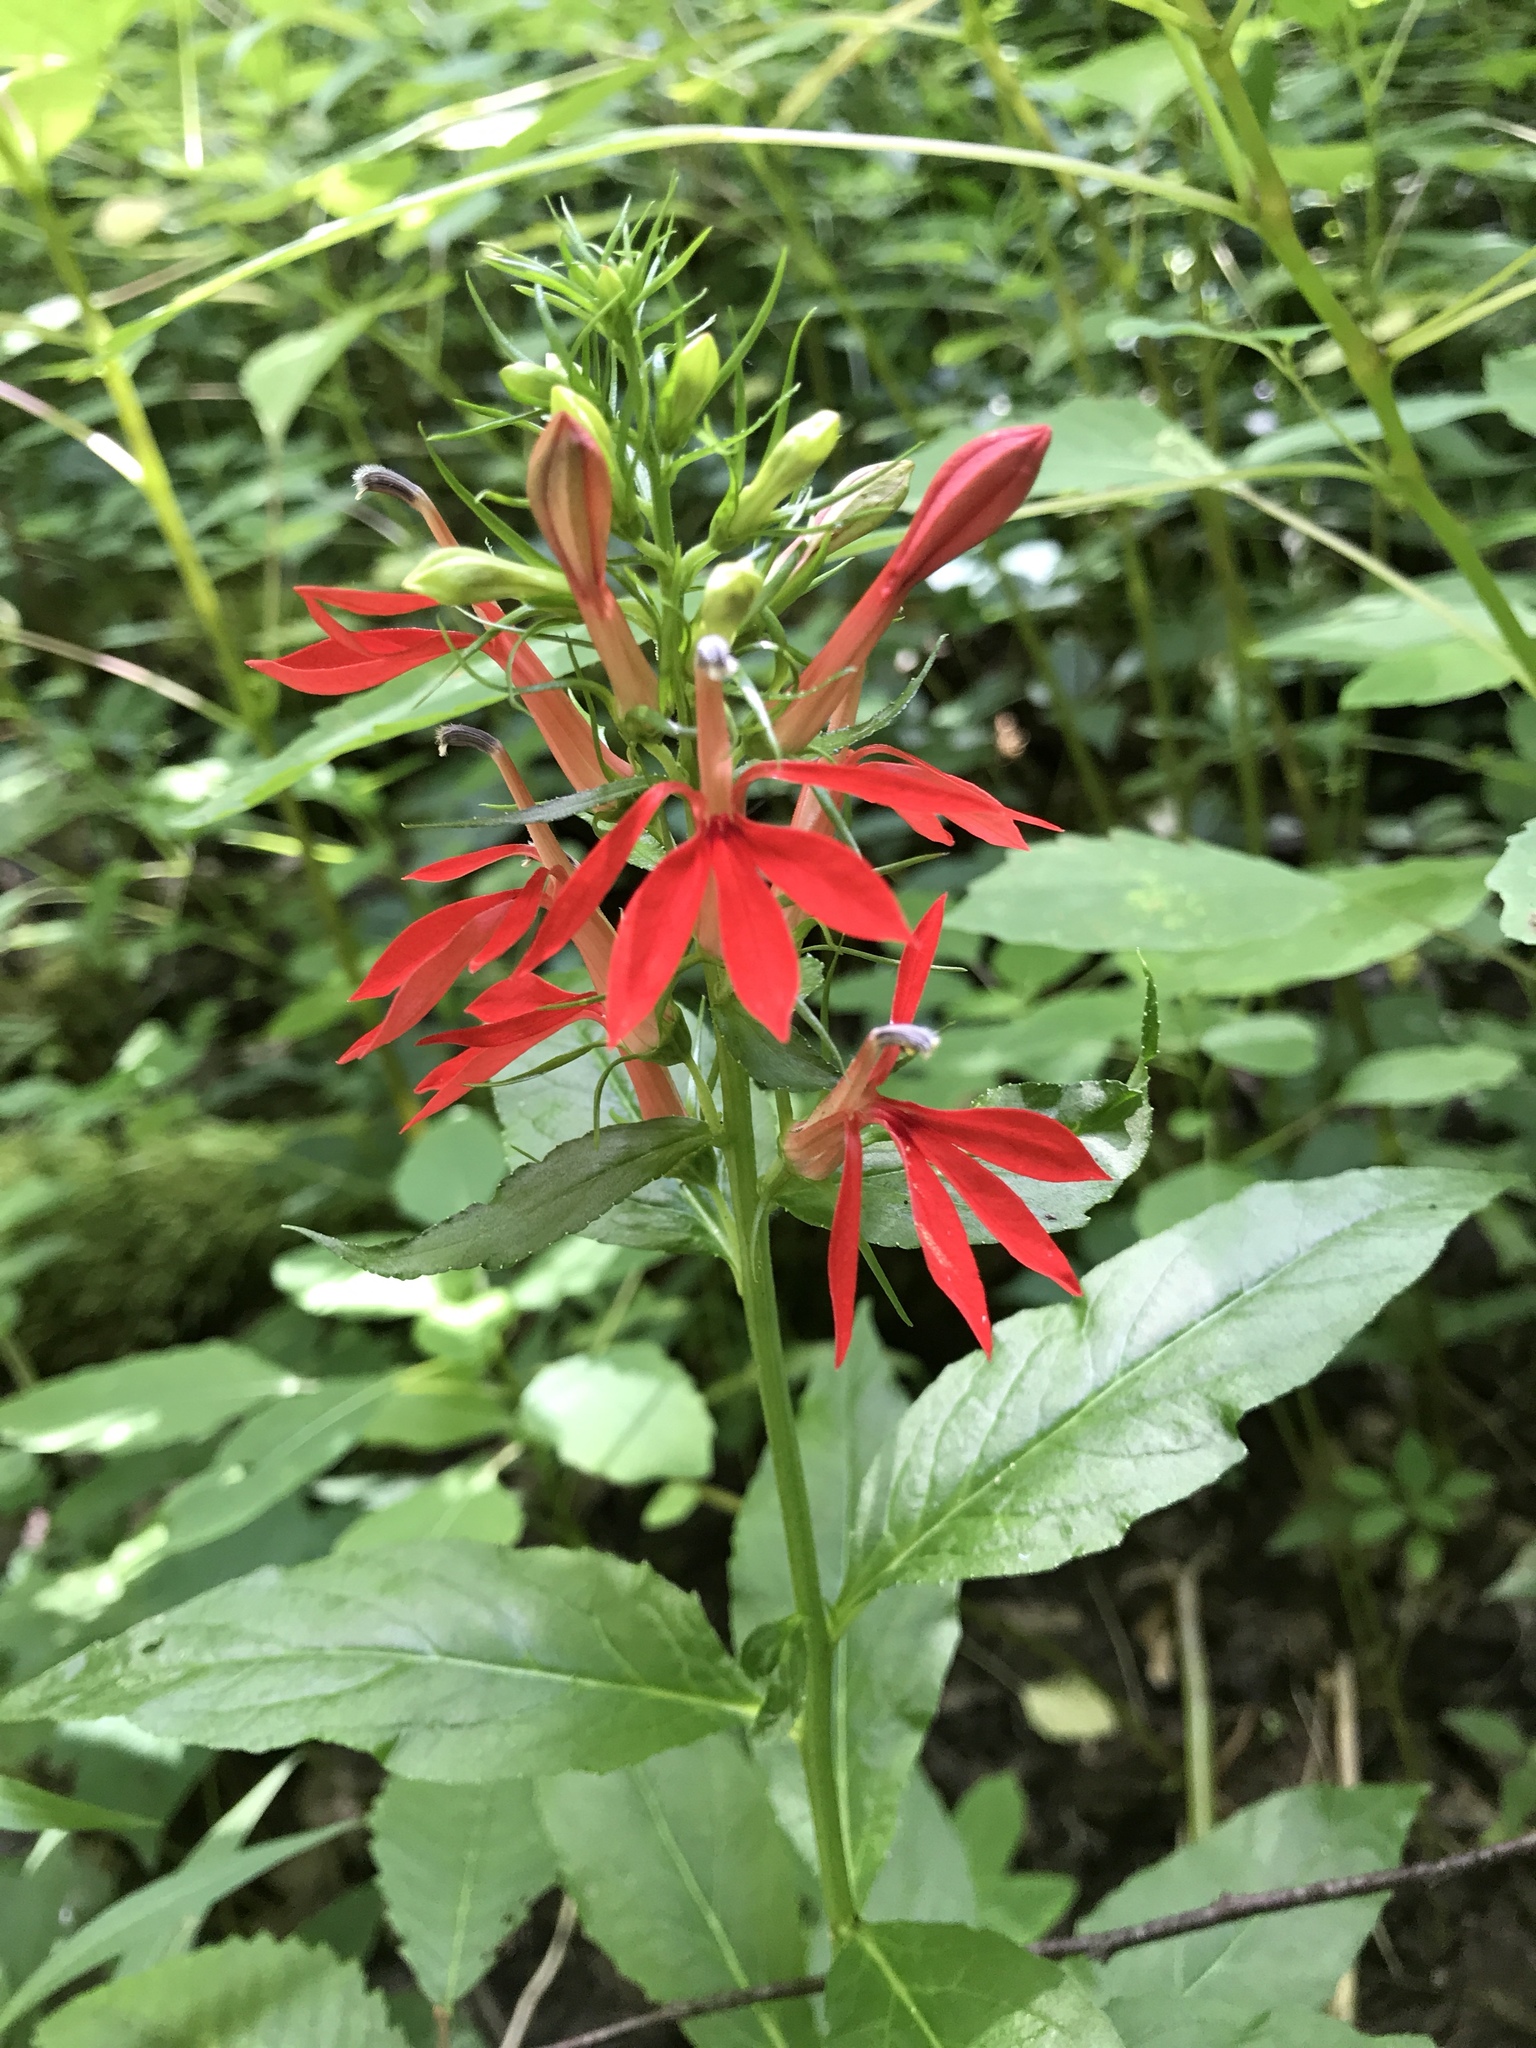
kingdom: Plantae
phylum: Tracheophyta
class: Magnoliopsida
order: Asterales
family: Campanulaceae
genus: Lobelia
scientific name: Lobelia cardinalis
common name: Cardinal flower
